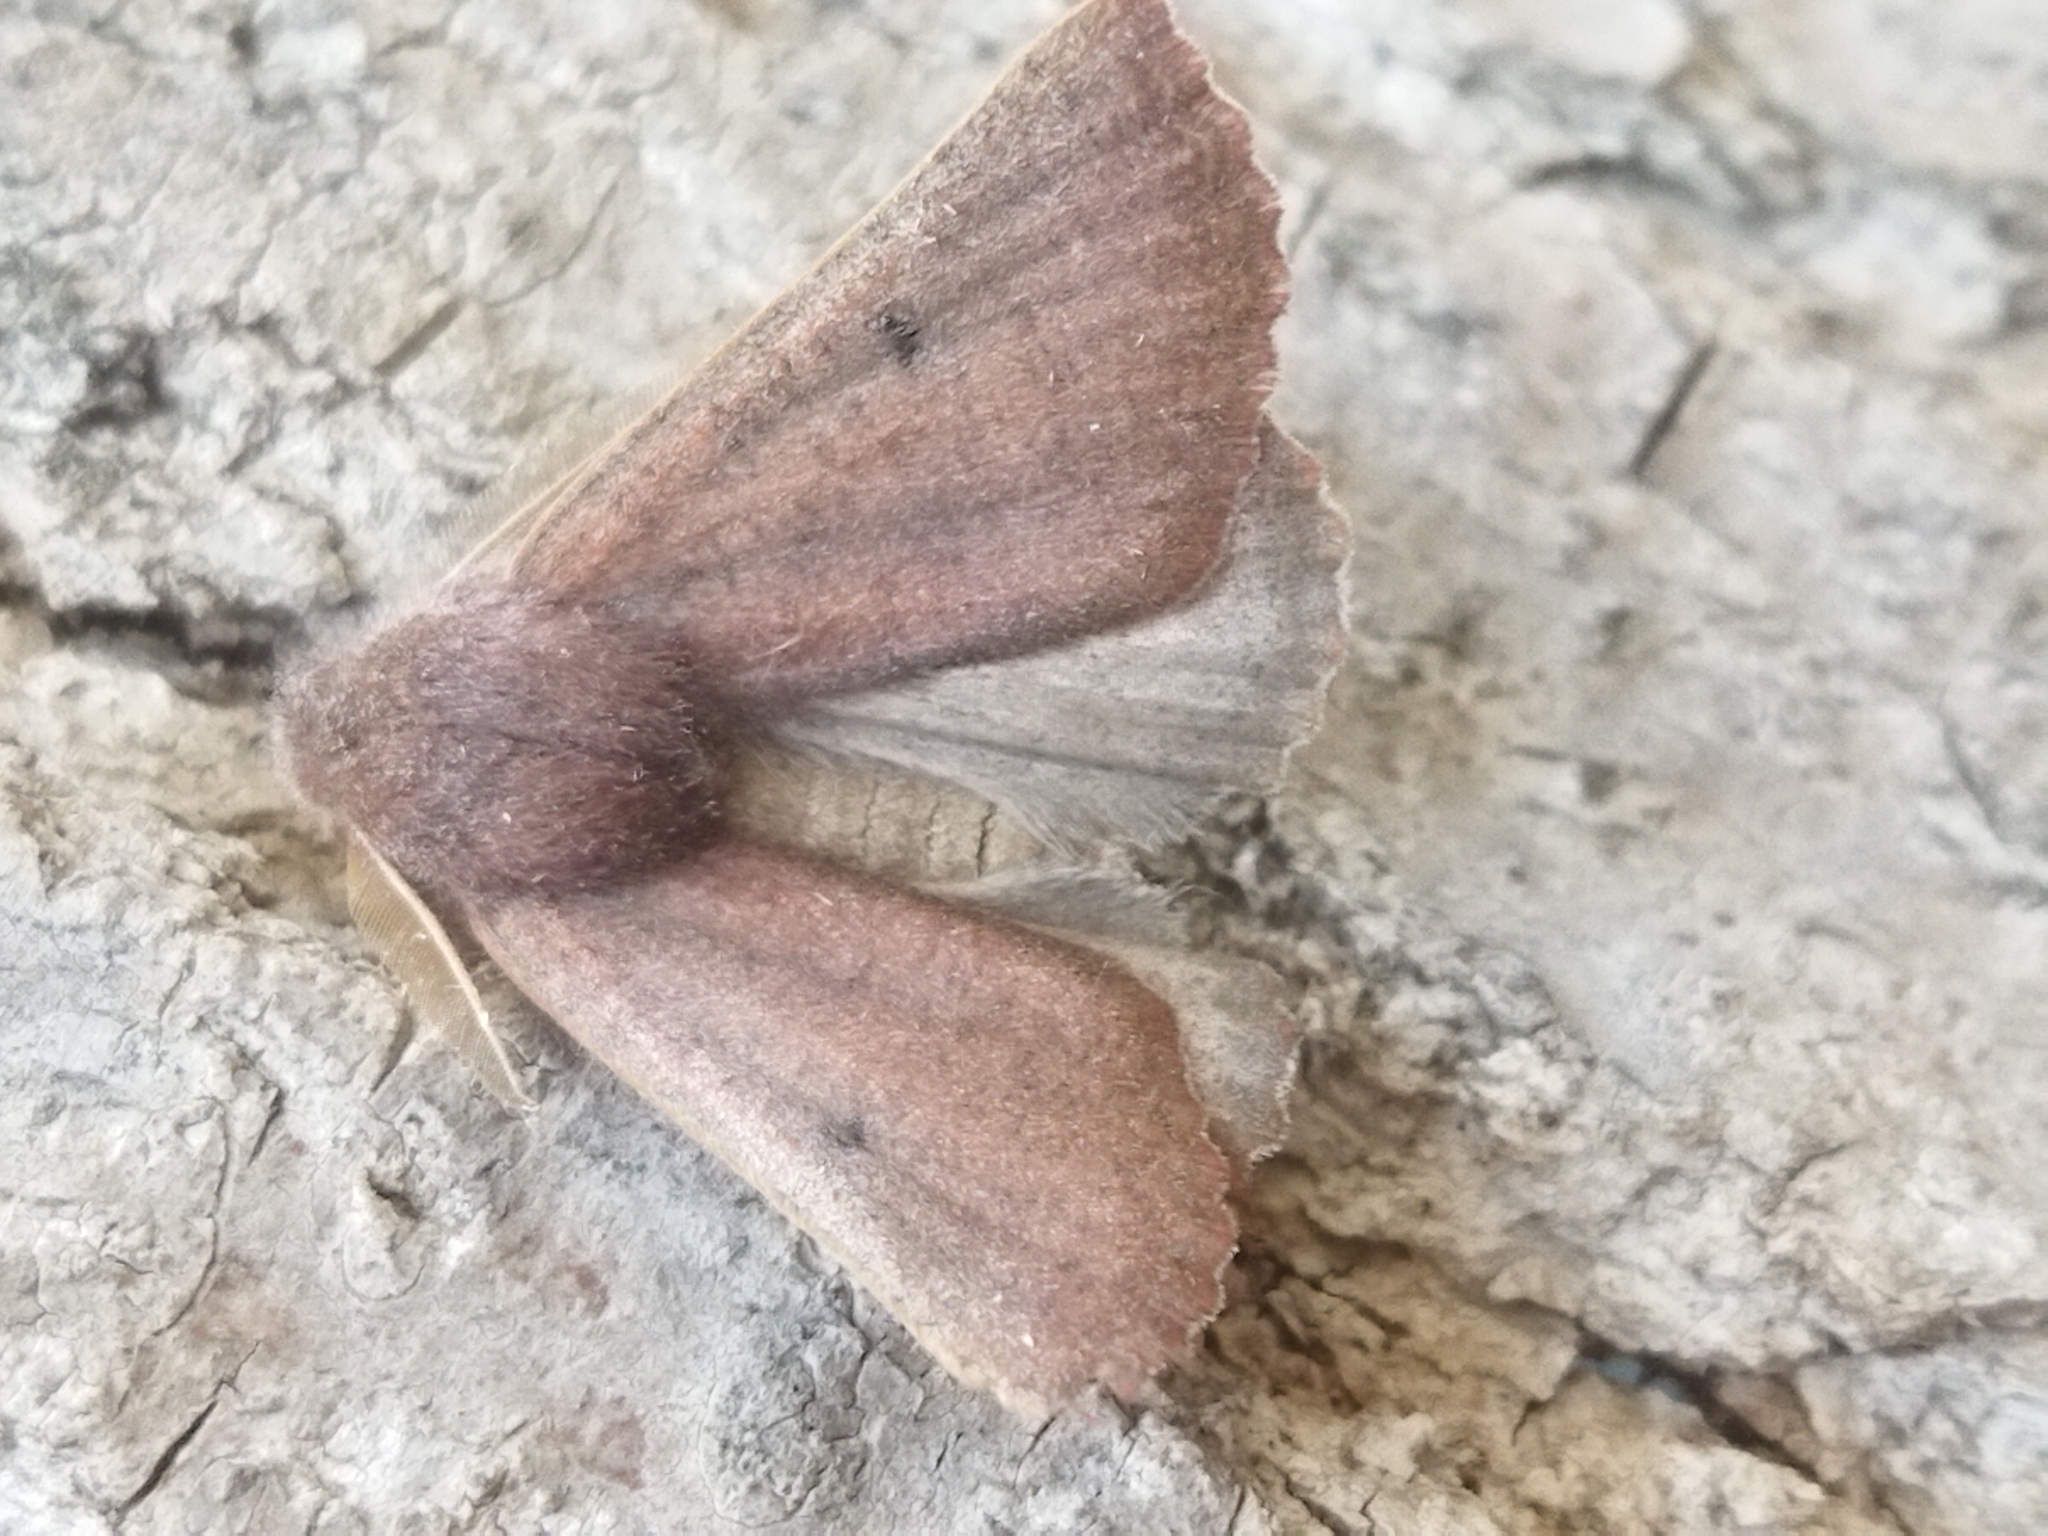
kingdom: Animalia
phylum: Arthropoda
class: Insecta
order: Lepidoptera
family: Geometridae
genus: Dasycorsa
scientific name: Dasycorsa modesta
